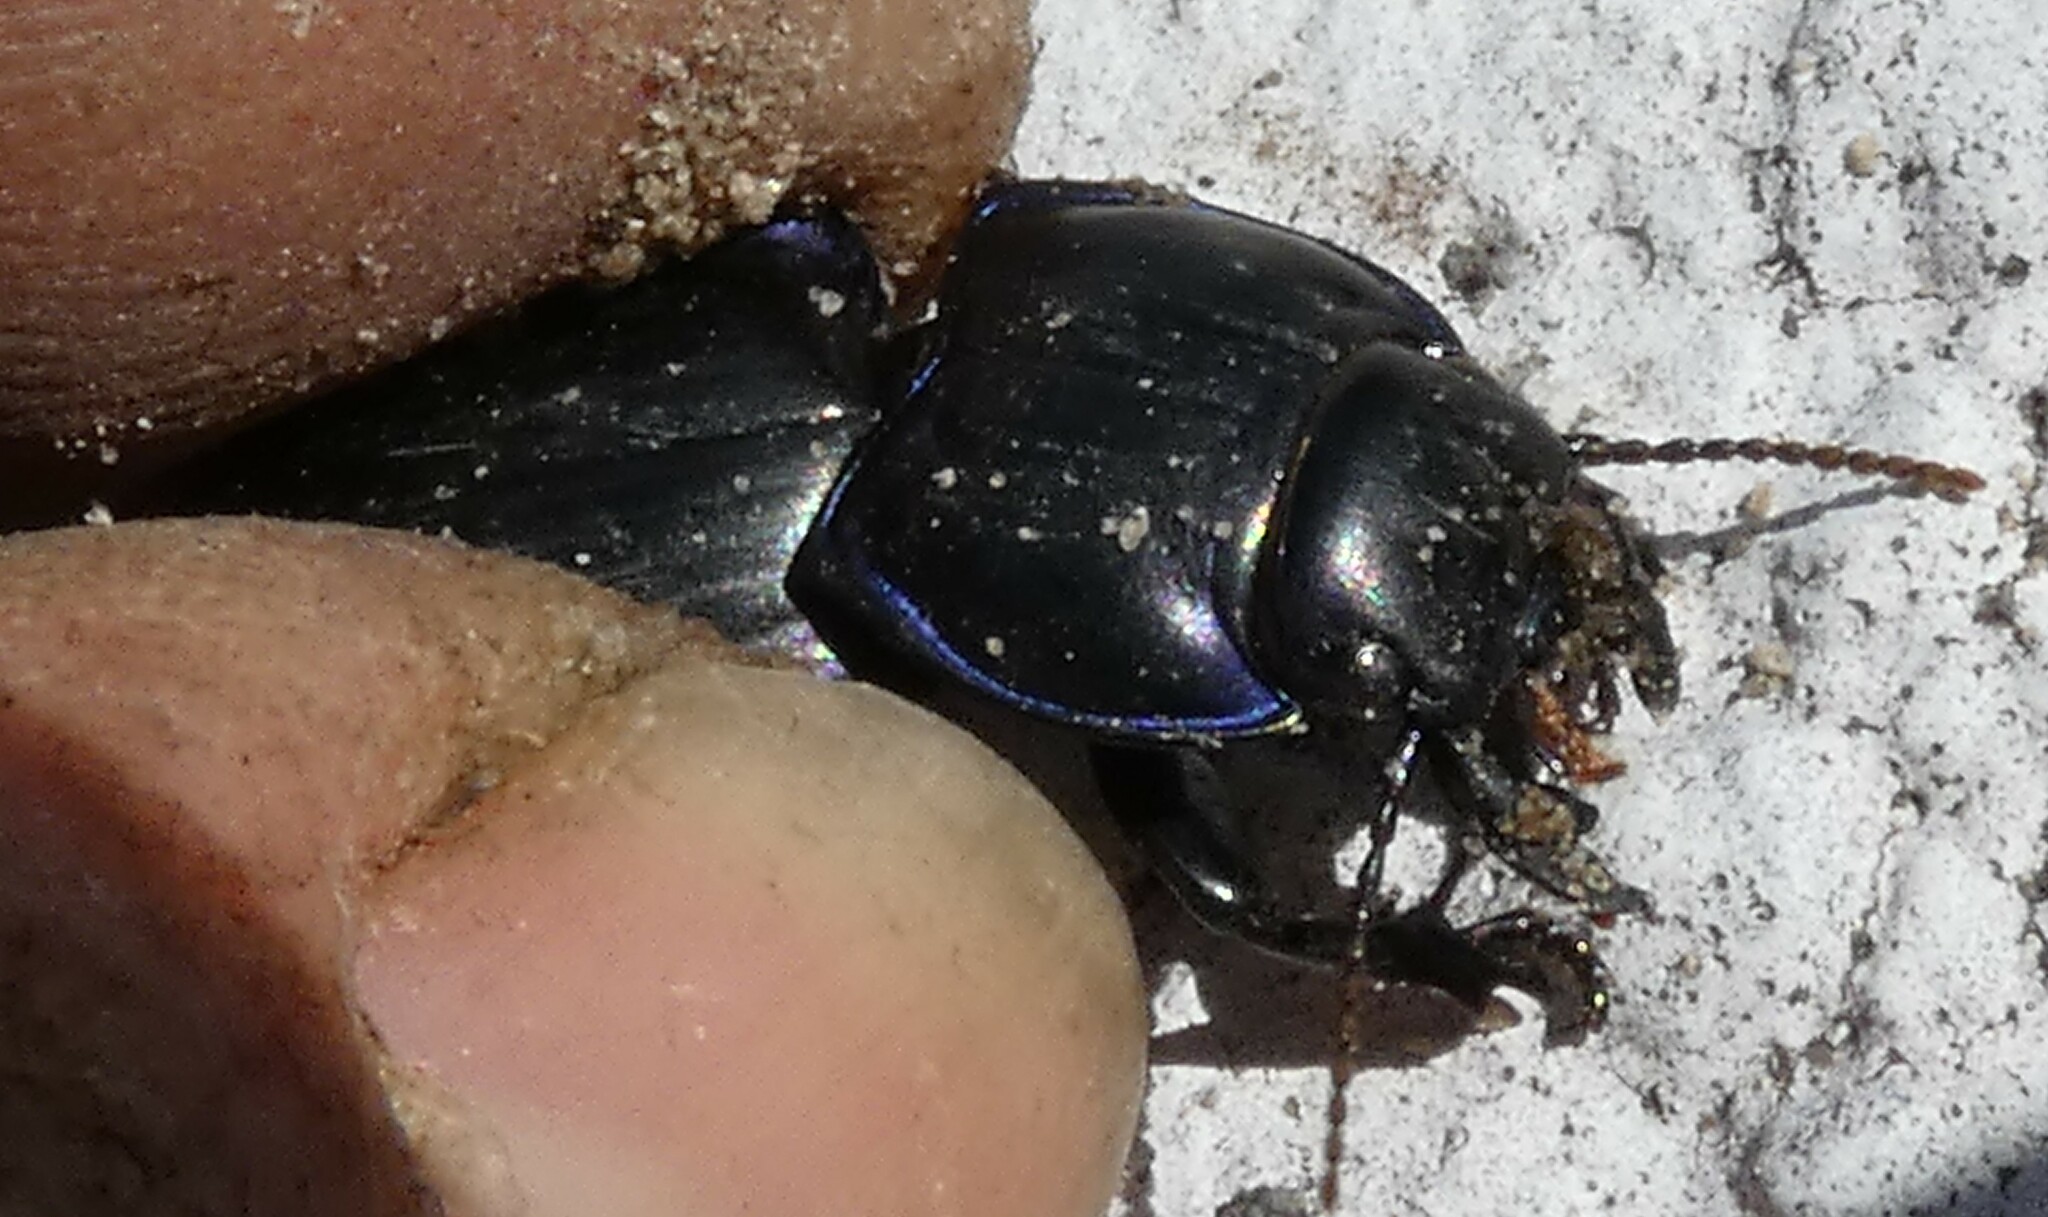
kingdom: Animalia
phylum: Arthropoda
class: Insecta
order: Coleoptera
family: Carabidae
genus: Pasimachus
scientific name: Pasimachus subsulcatus
